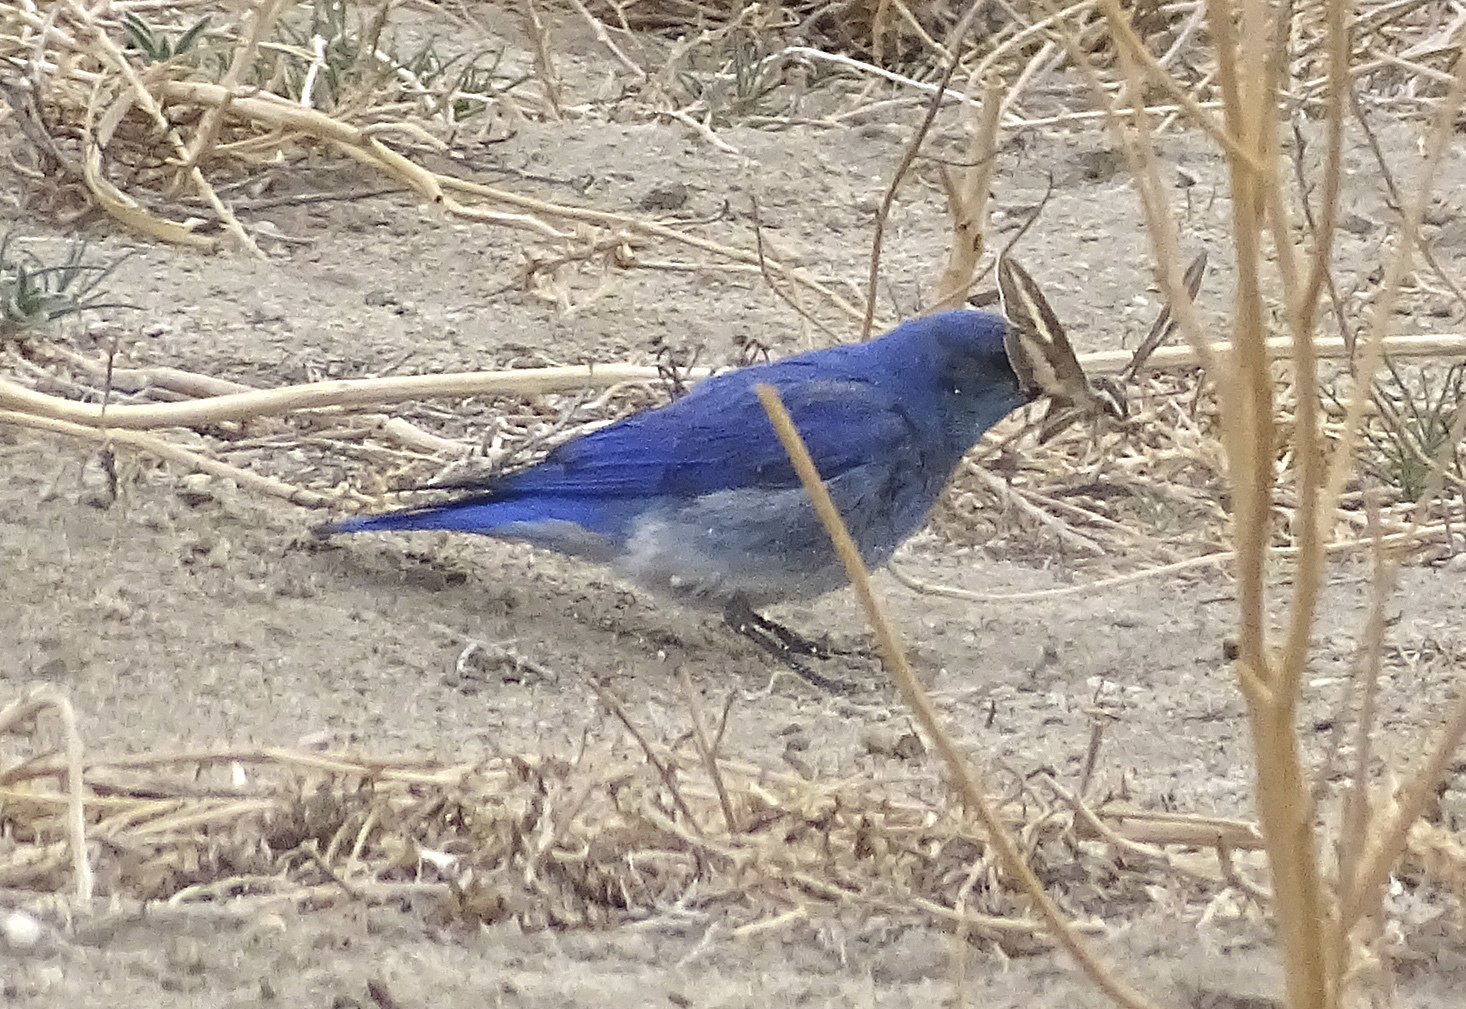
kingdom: Animalia
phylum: Chordata
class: Aves
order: Passeriformes
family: Turdidae
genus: Sialia
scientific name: Sialia currucoides
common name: Mountain bluebird
